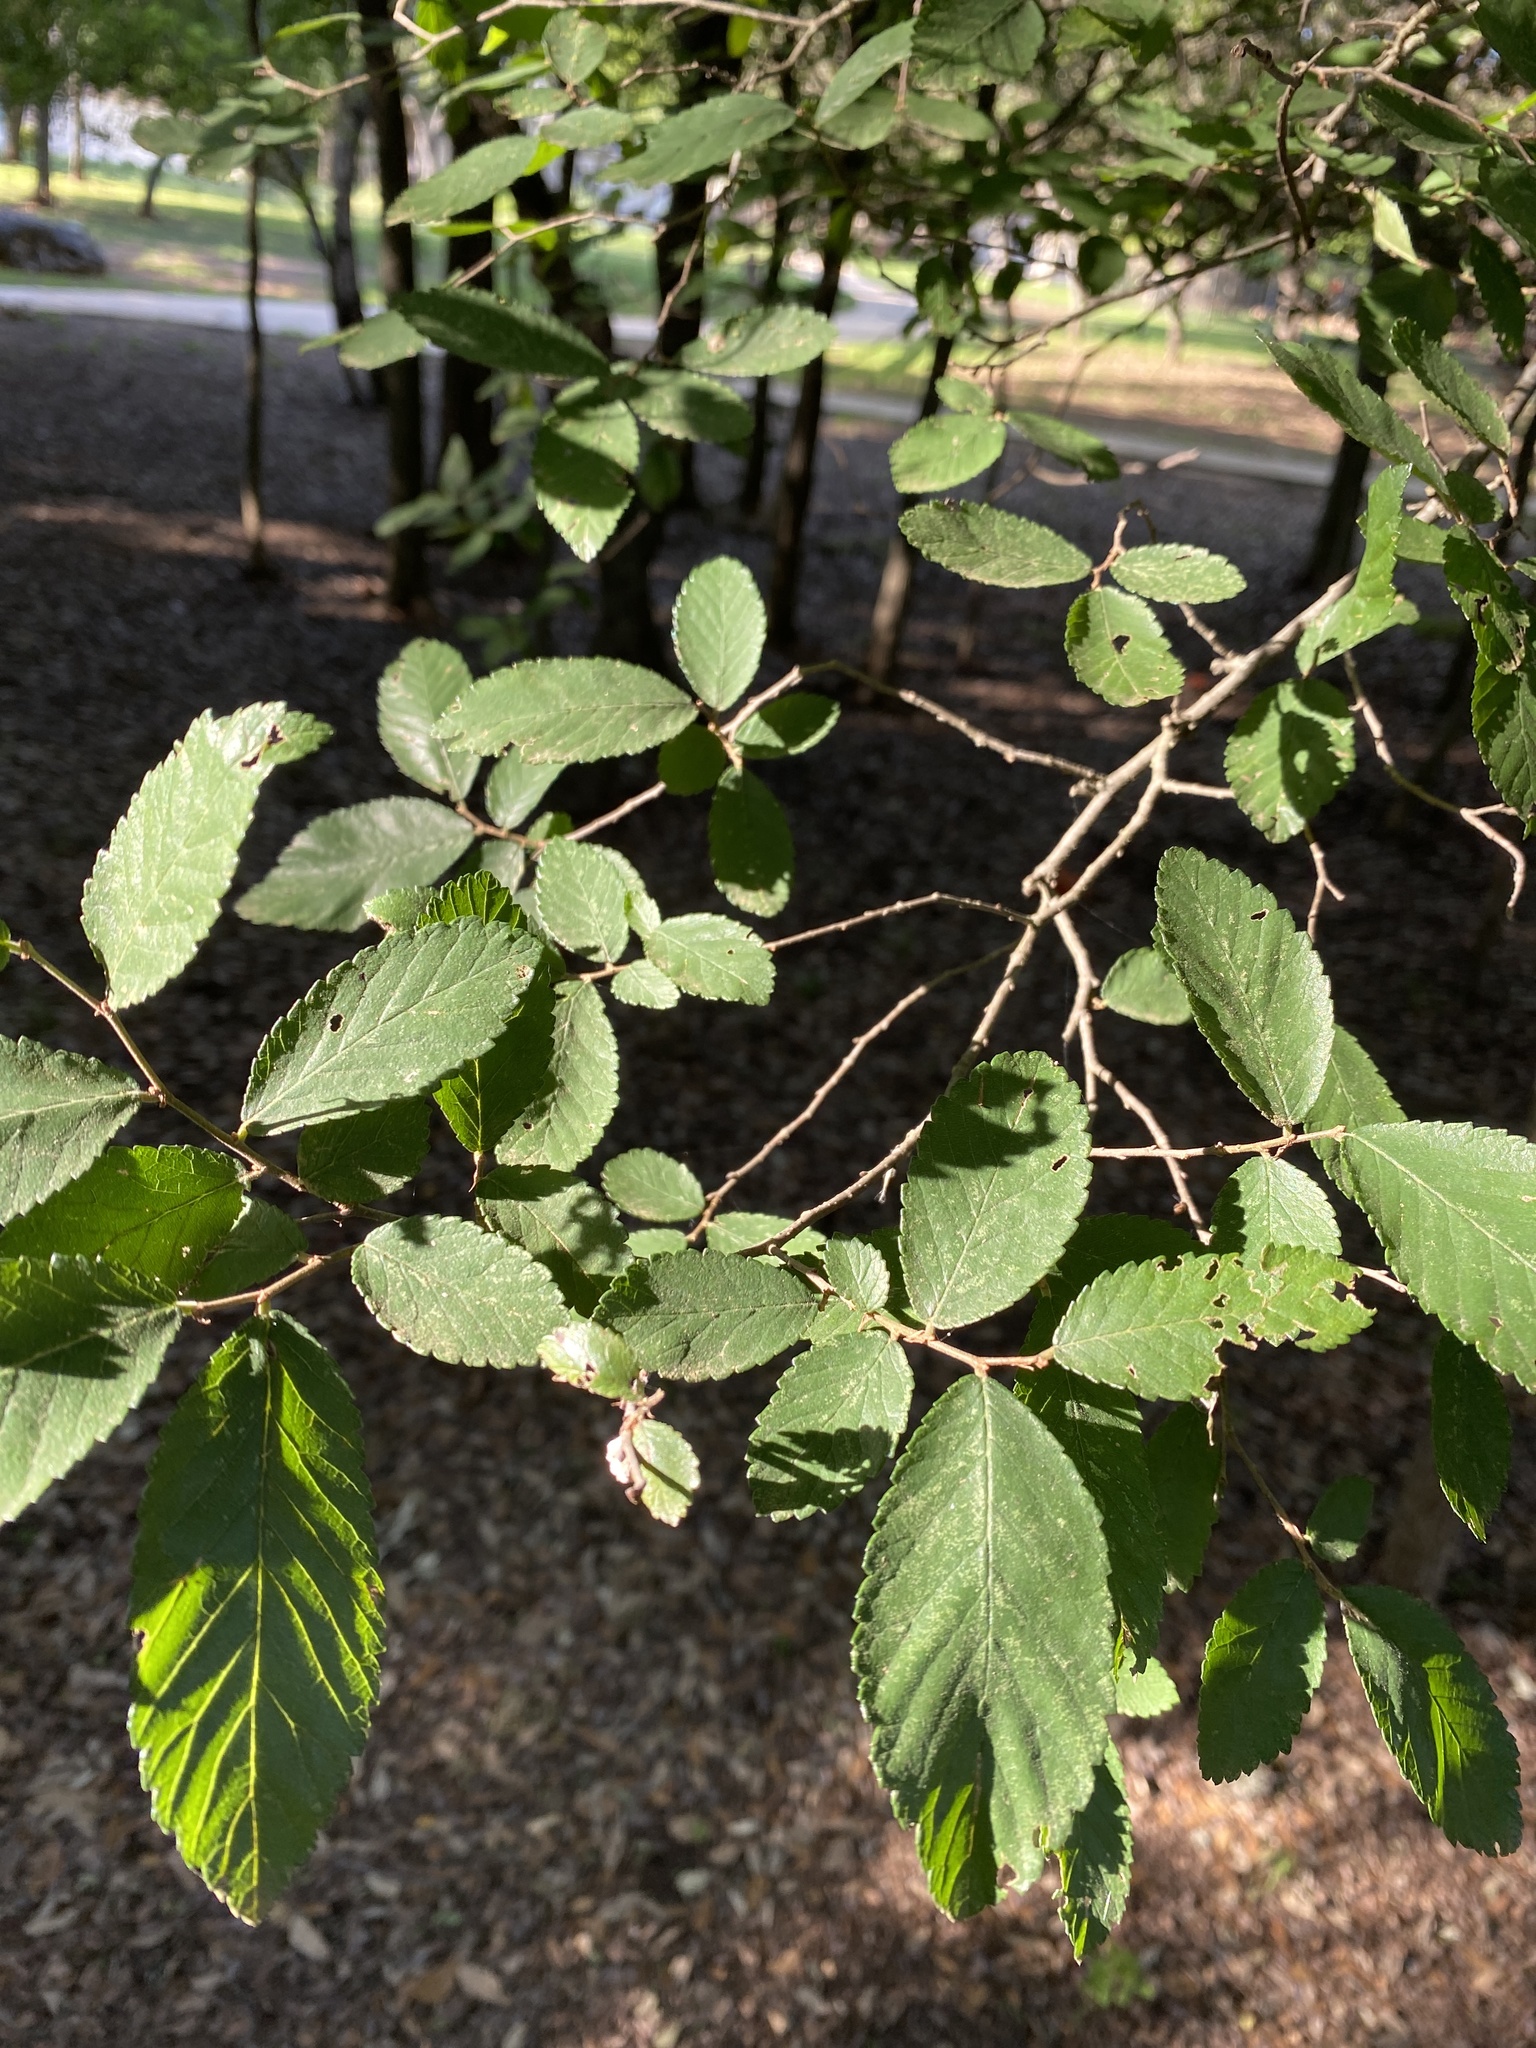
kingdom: Plantae
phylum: Tracheophyta
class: Magnoliopsida
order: Rosales
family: Ulmaceae
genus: Ulmus
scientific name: Ulmus crassifolia
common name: Basket elm
